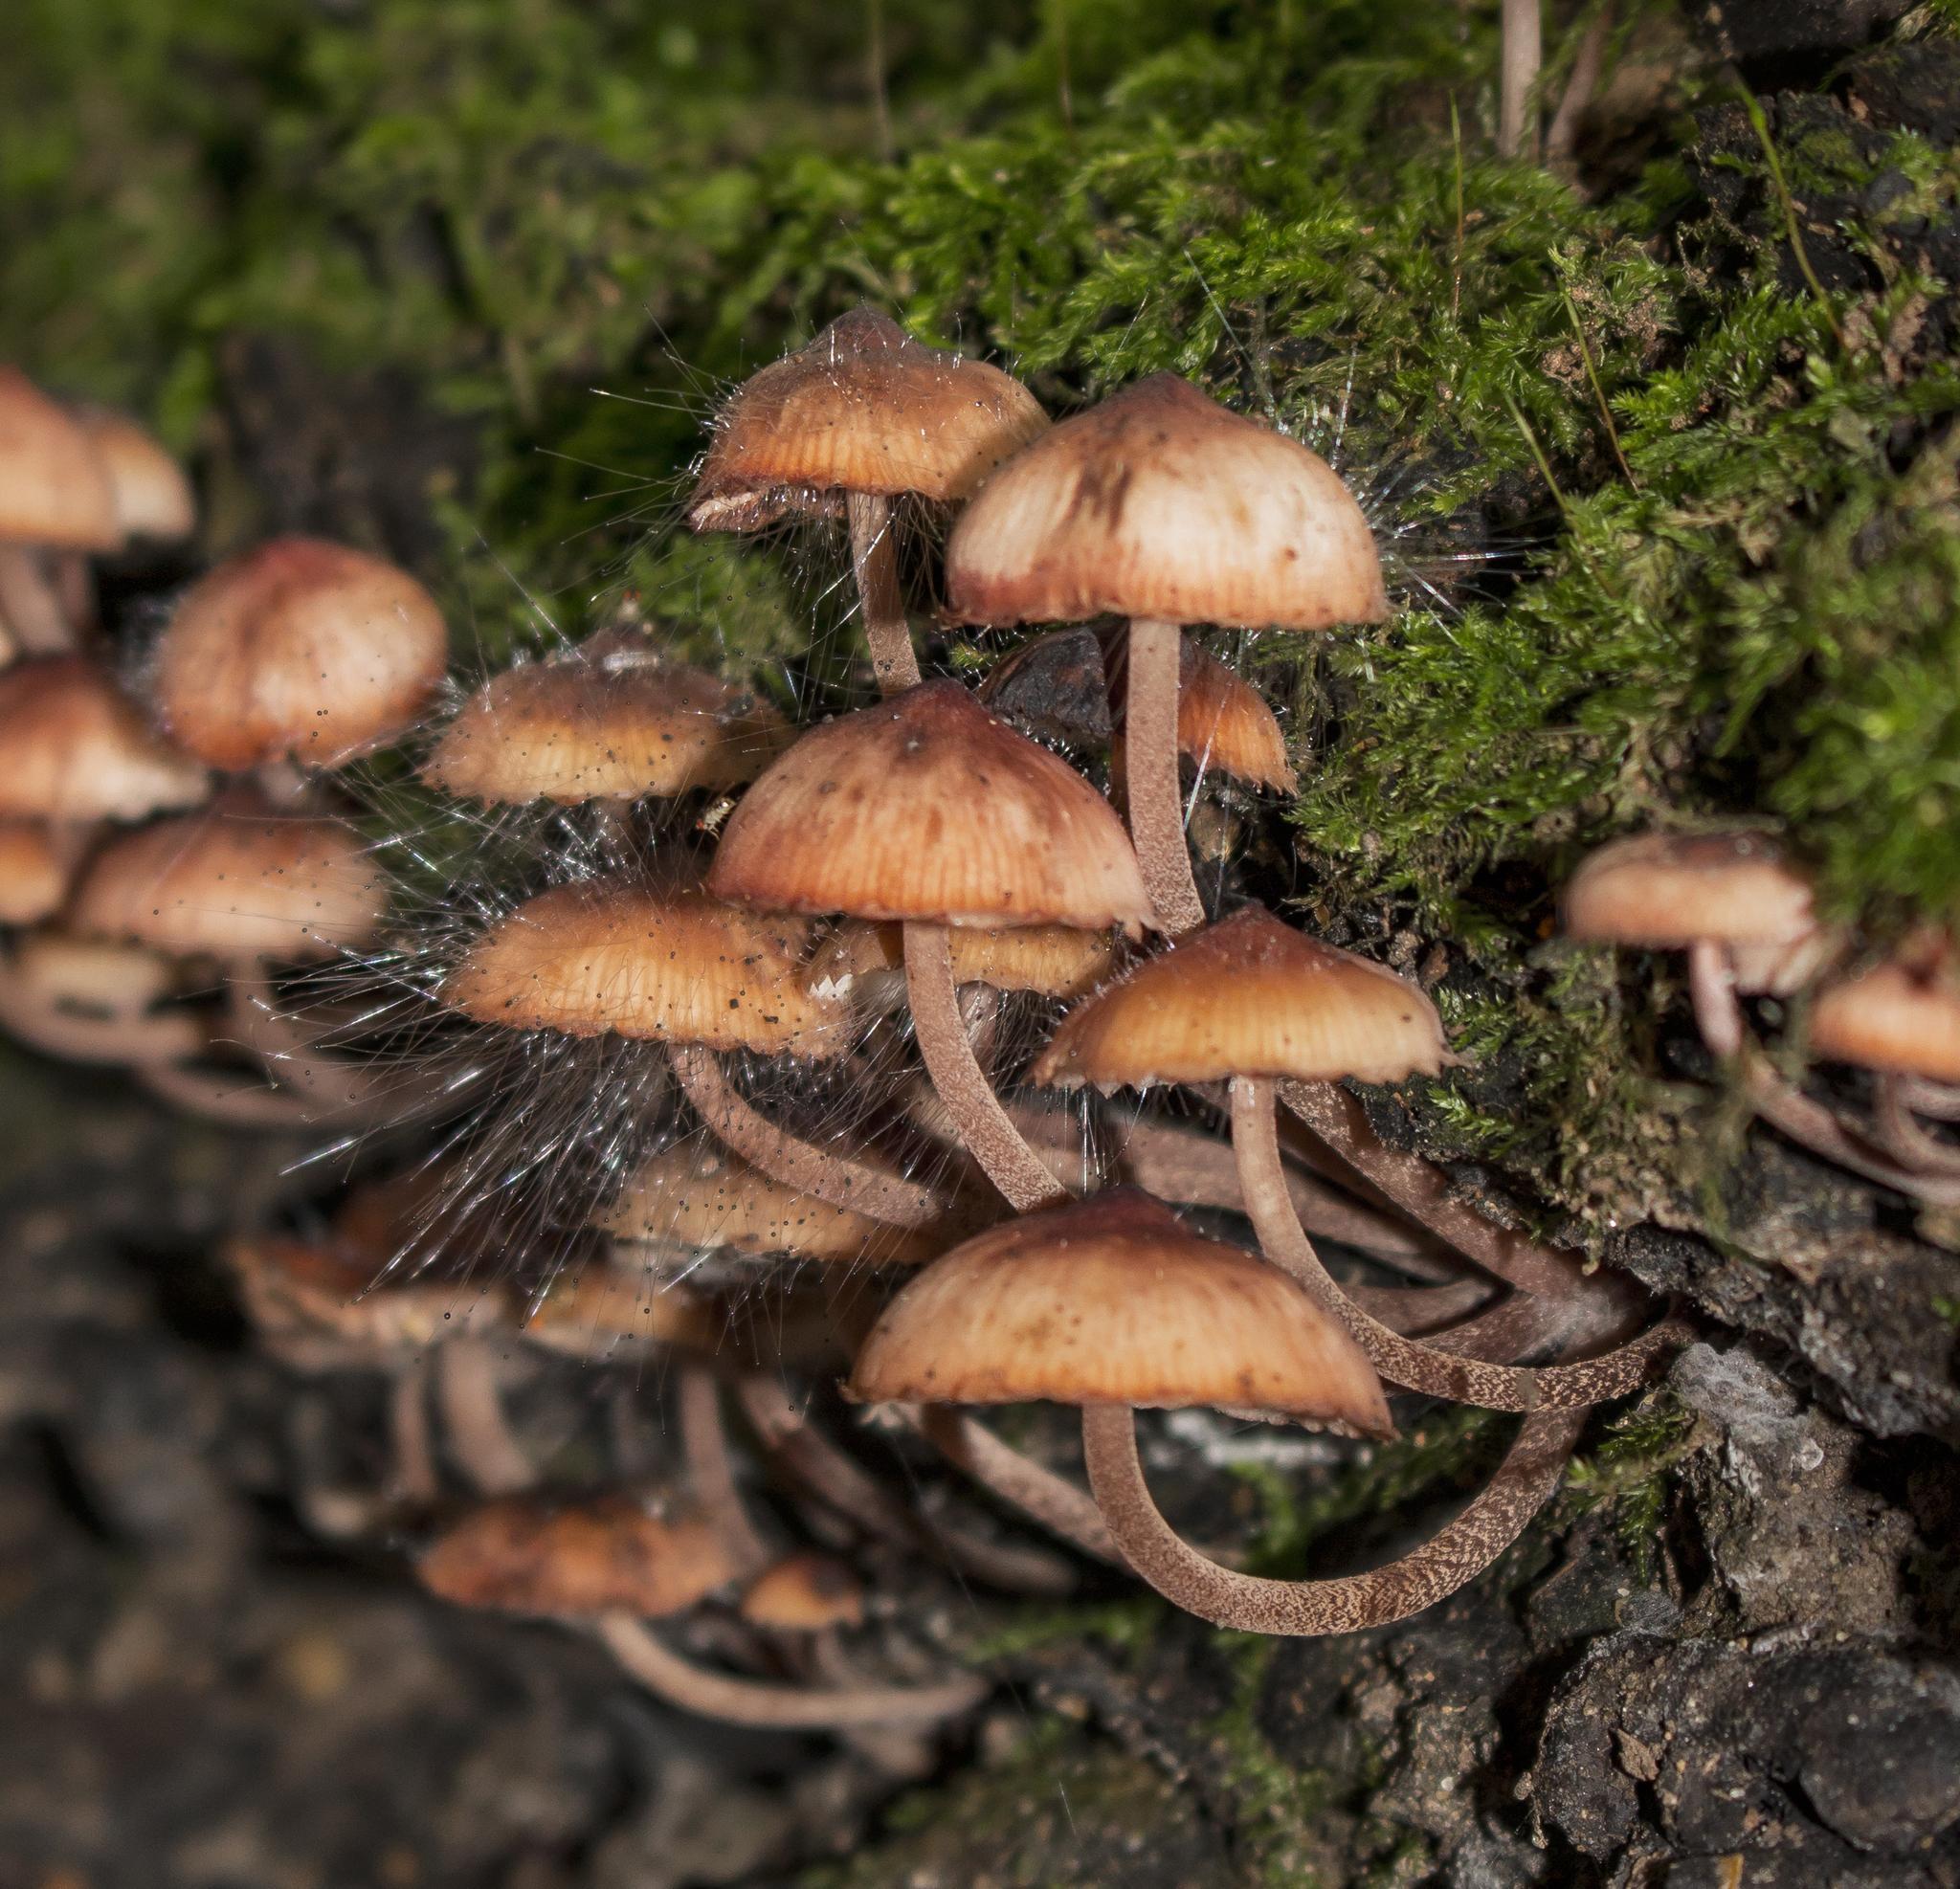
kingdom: Fungi
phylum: Basidiomycota
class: Agaricomycetes
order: Agaricales
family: Mycenaceae
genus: Mycena
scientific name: Mycena haematopus
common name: Burgundydrop bonnet
